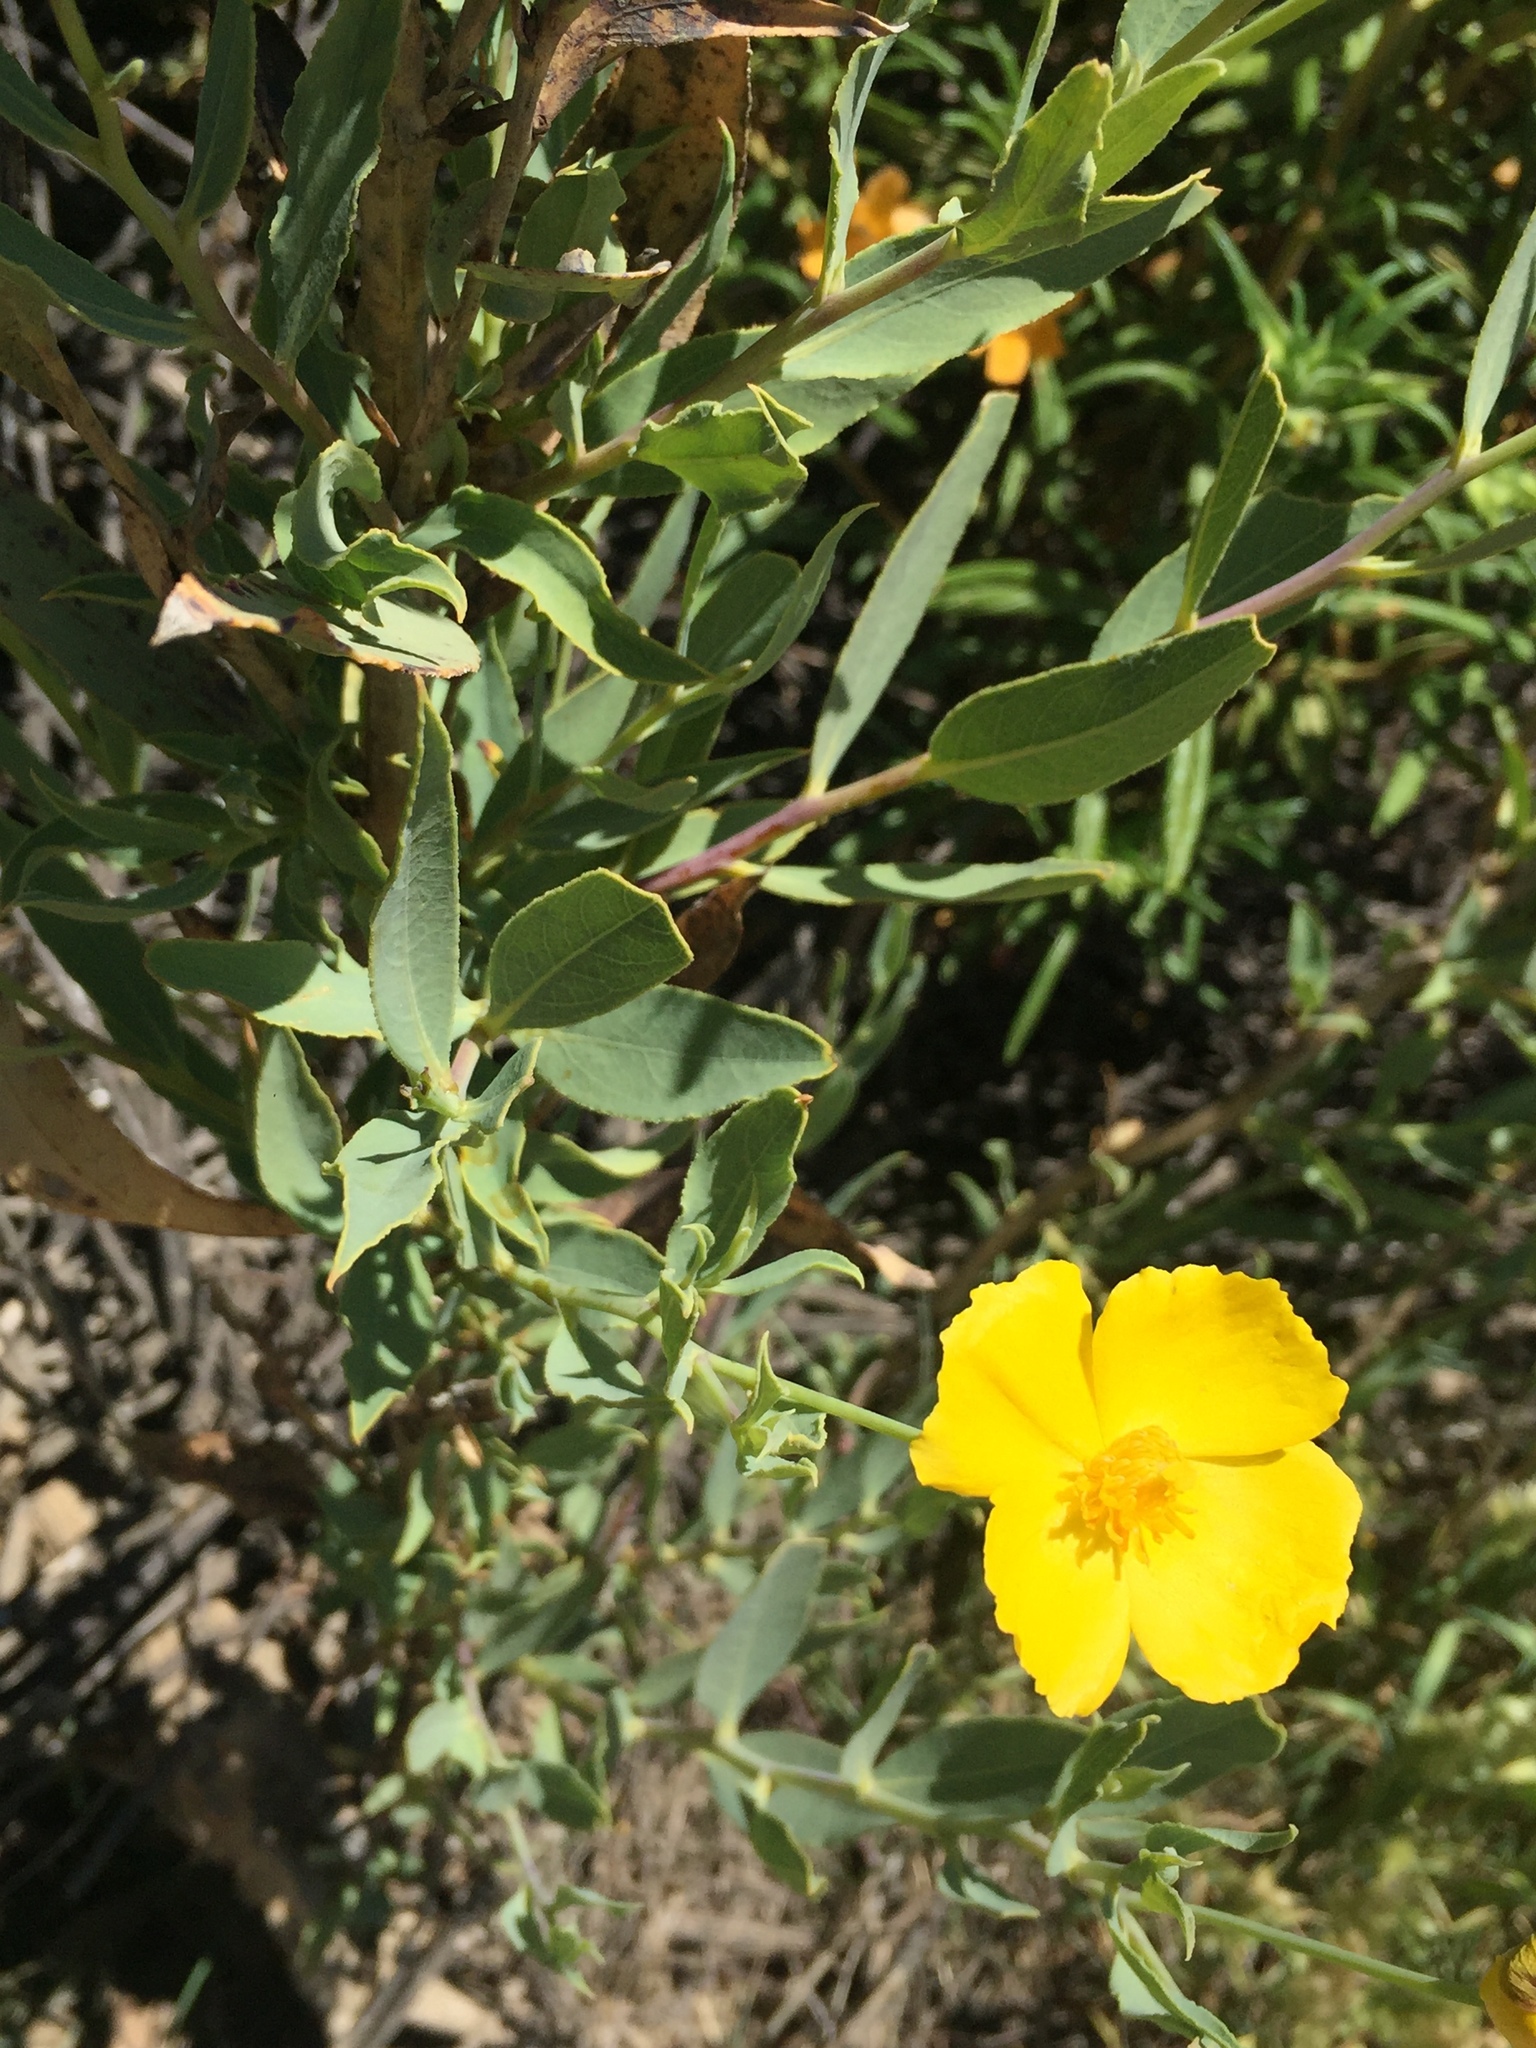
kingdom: Plantae
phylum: Tracheophyta
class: Magnoliopsida
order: Ranunculales
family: Papaveraceae
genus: Dendromecon
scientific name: Dendromecon rigida
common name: Tree poppy
